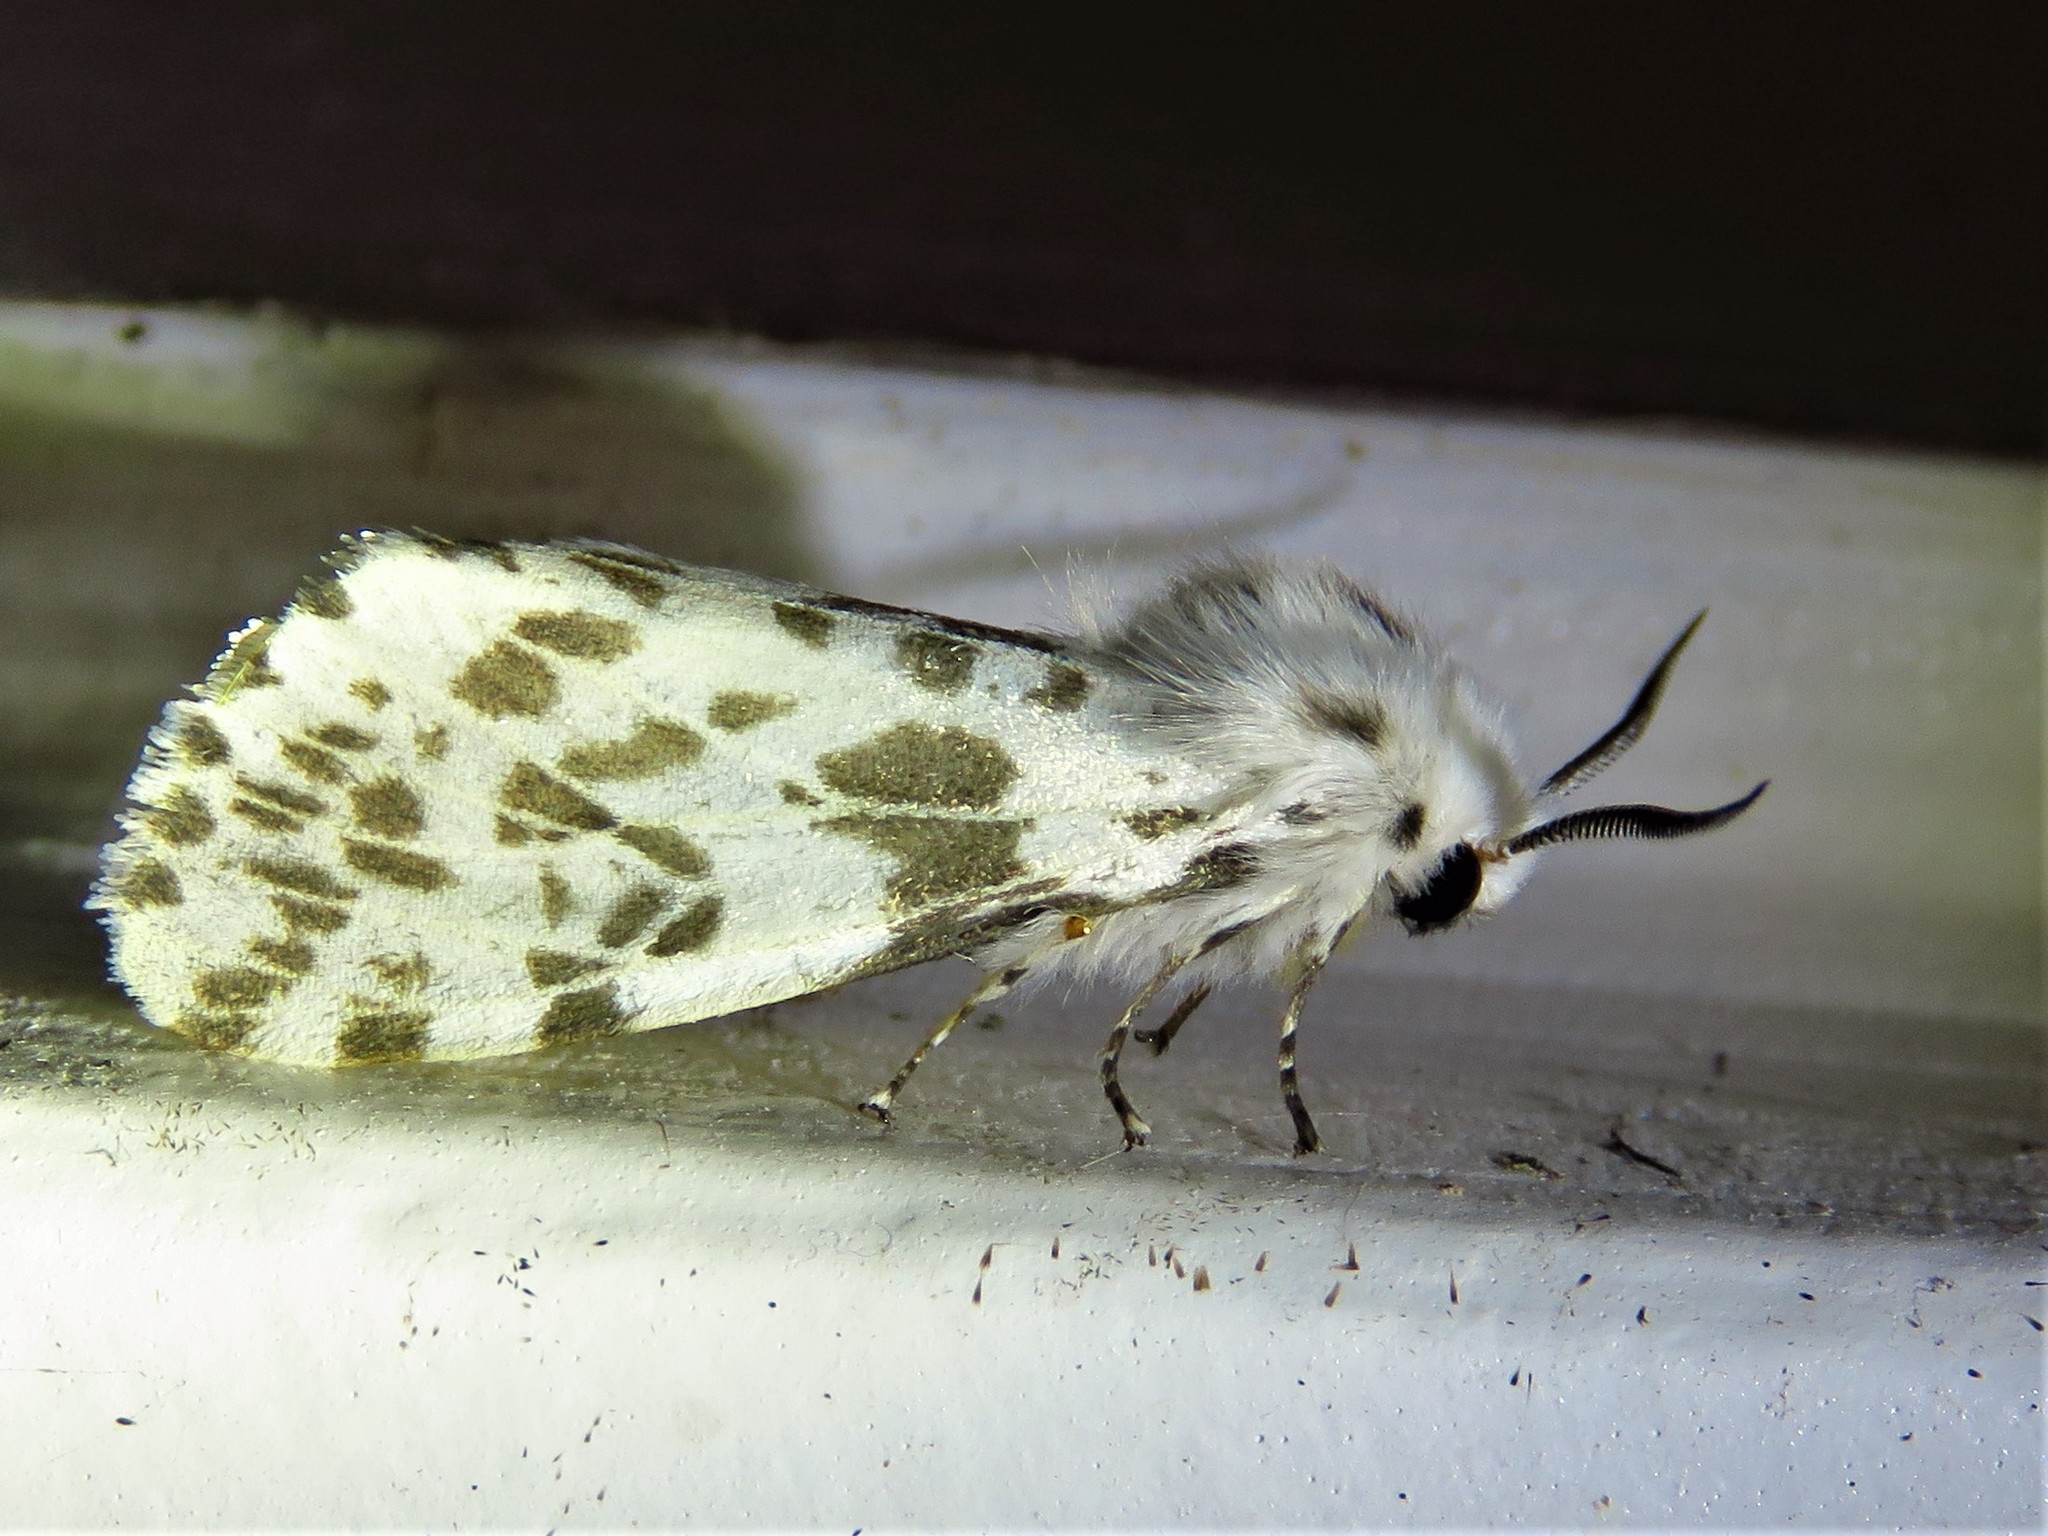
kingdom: Animalia
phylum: Arthropoda
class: Insecta
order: Lepidoptera
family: Erebidae
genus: Hyphantria
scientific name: Hyphantria cunea
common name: American white moth
